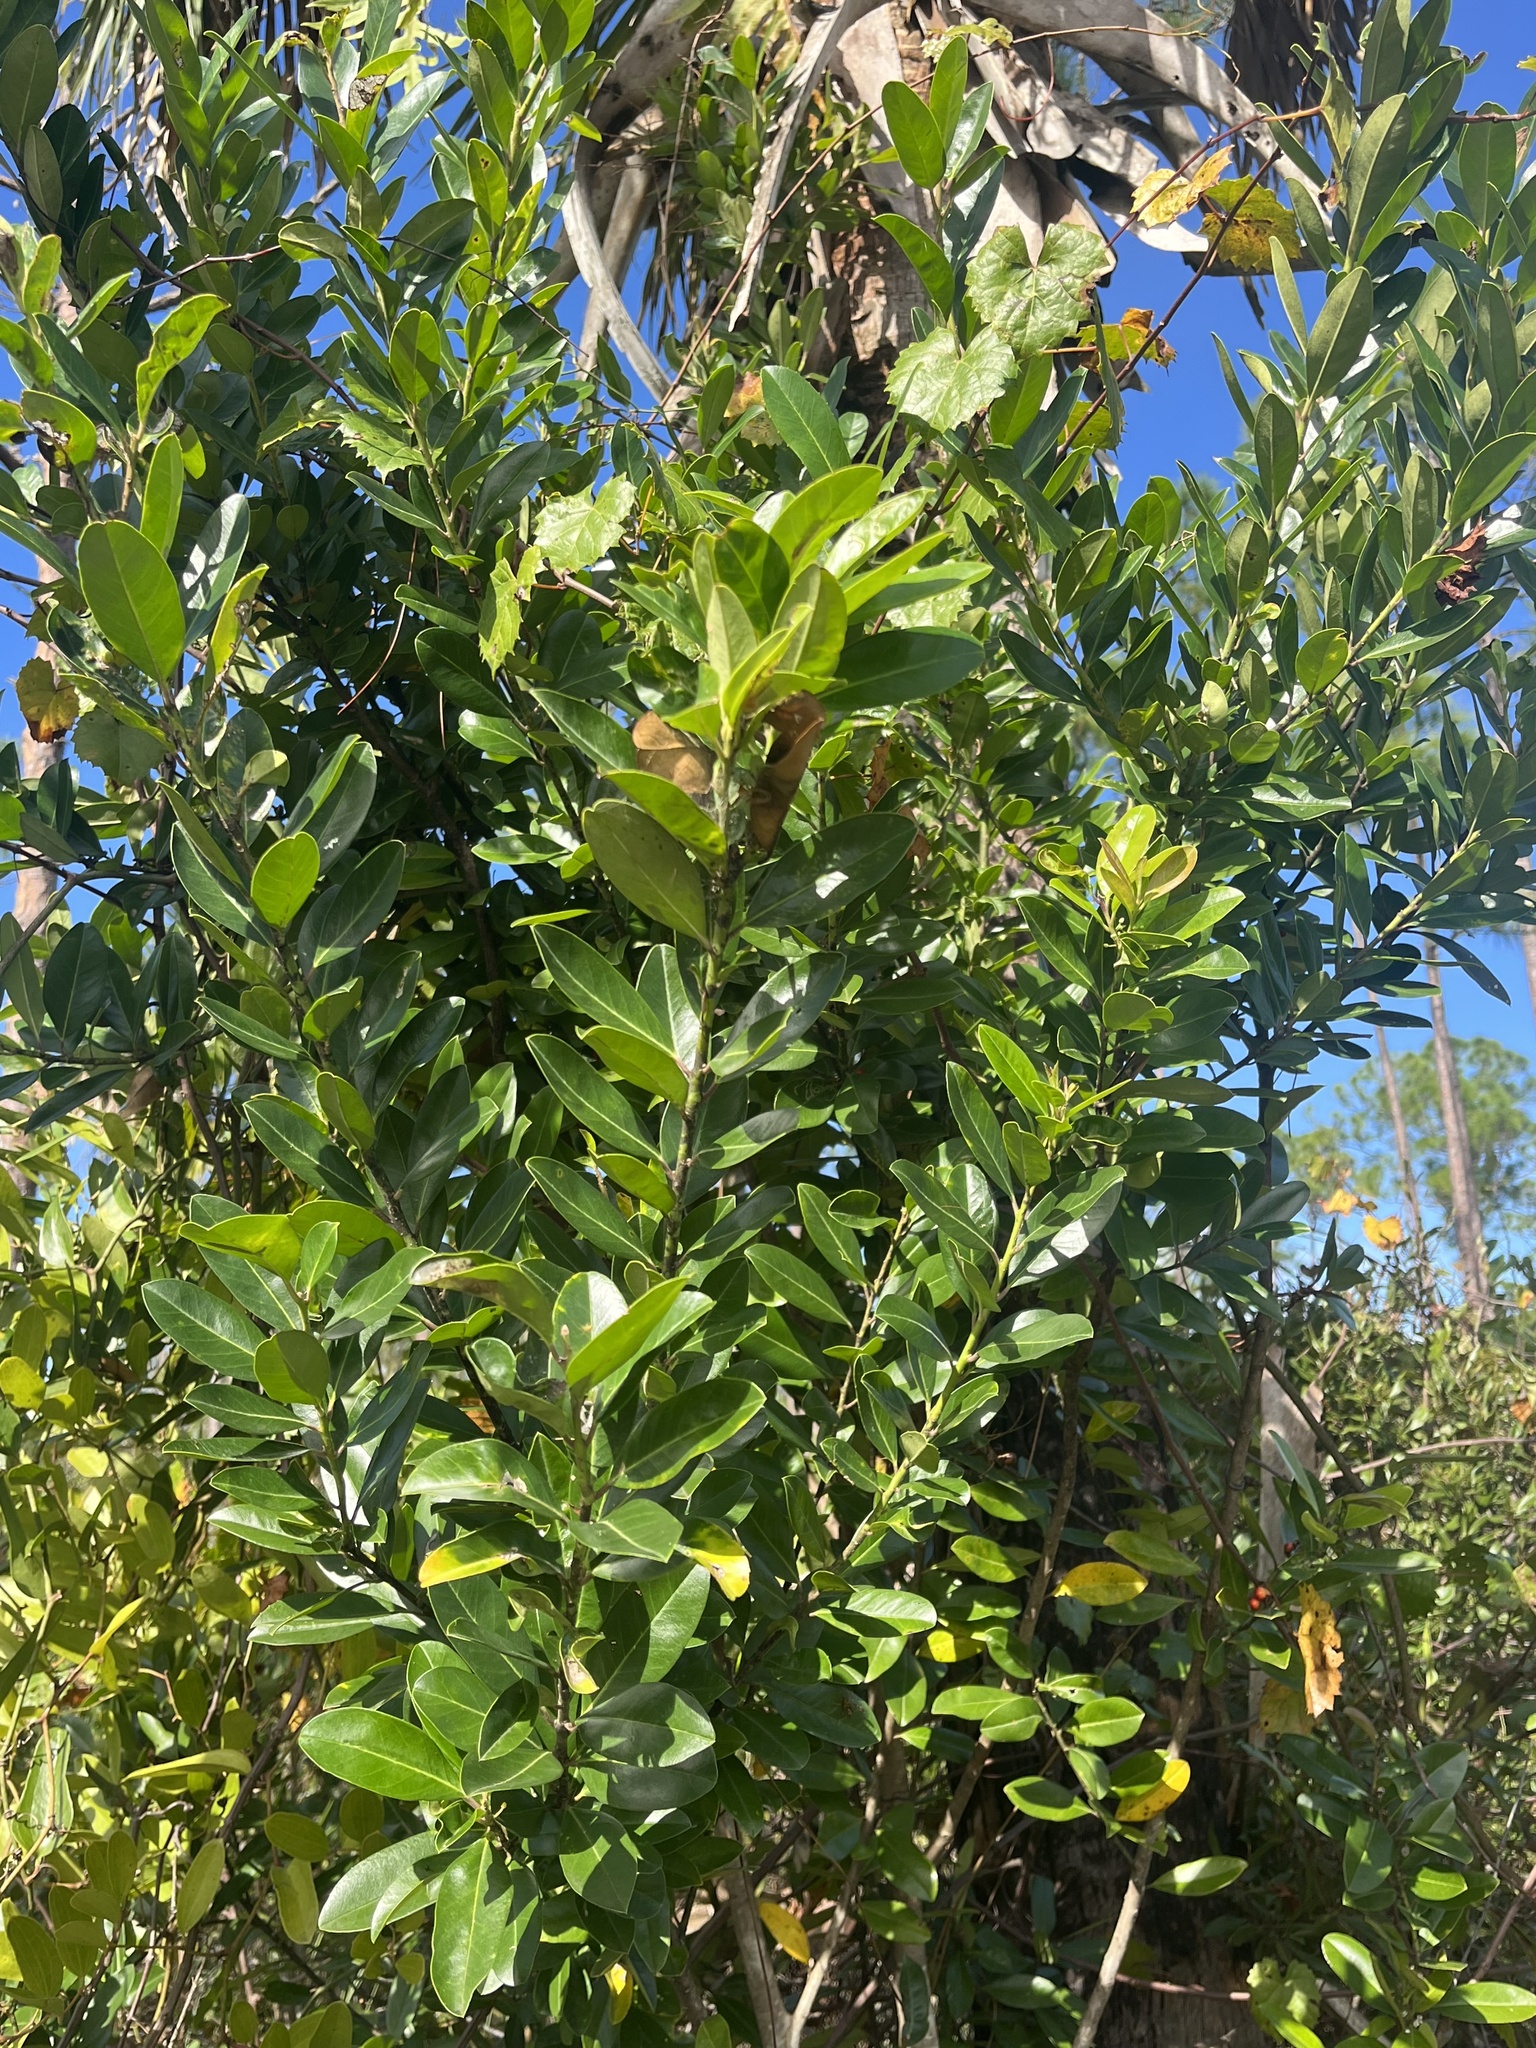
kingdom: Plantae
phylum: Tracheophyta
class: Magnoliopsida
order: Aquifoliales
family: Aquifoliaceae
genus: Ilex
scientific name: Ilex cassine
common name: Dahoon
